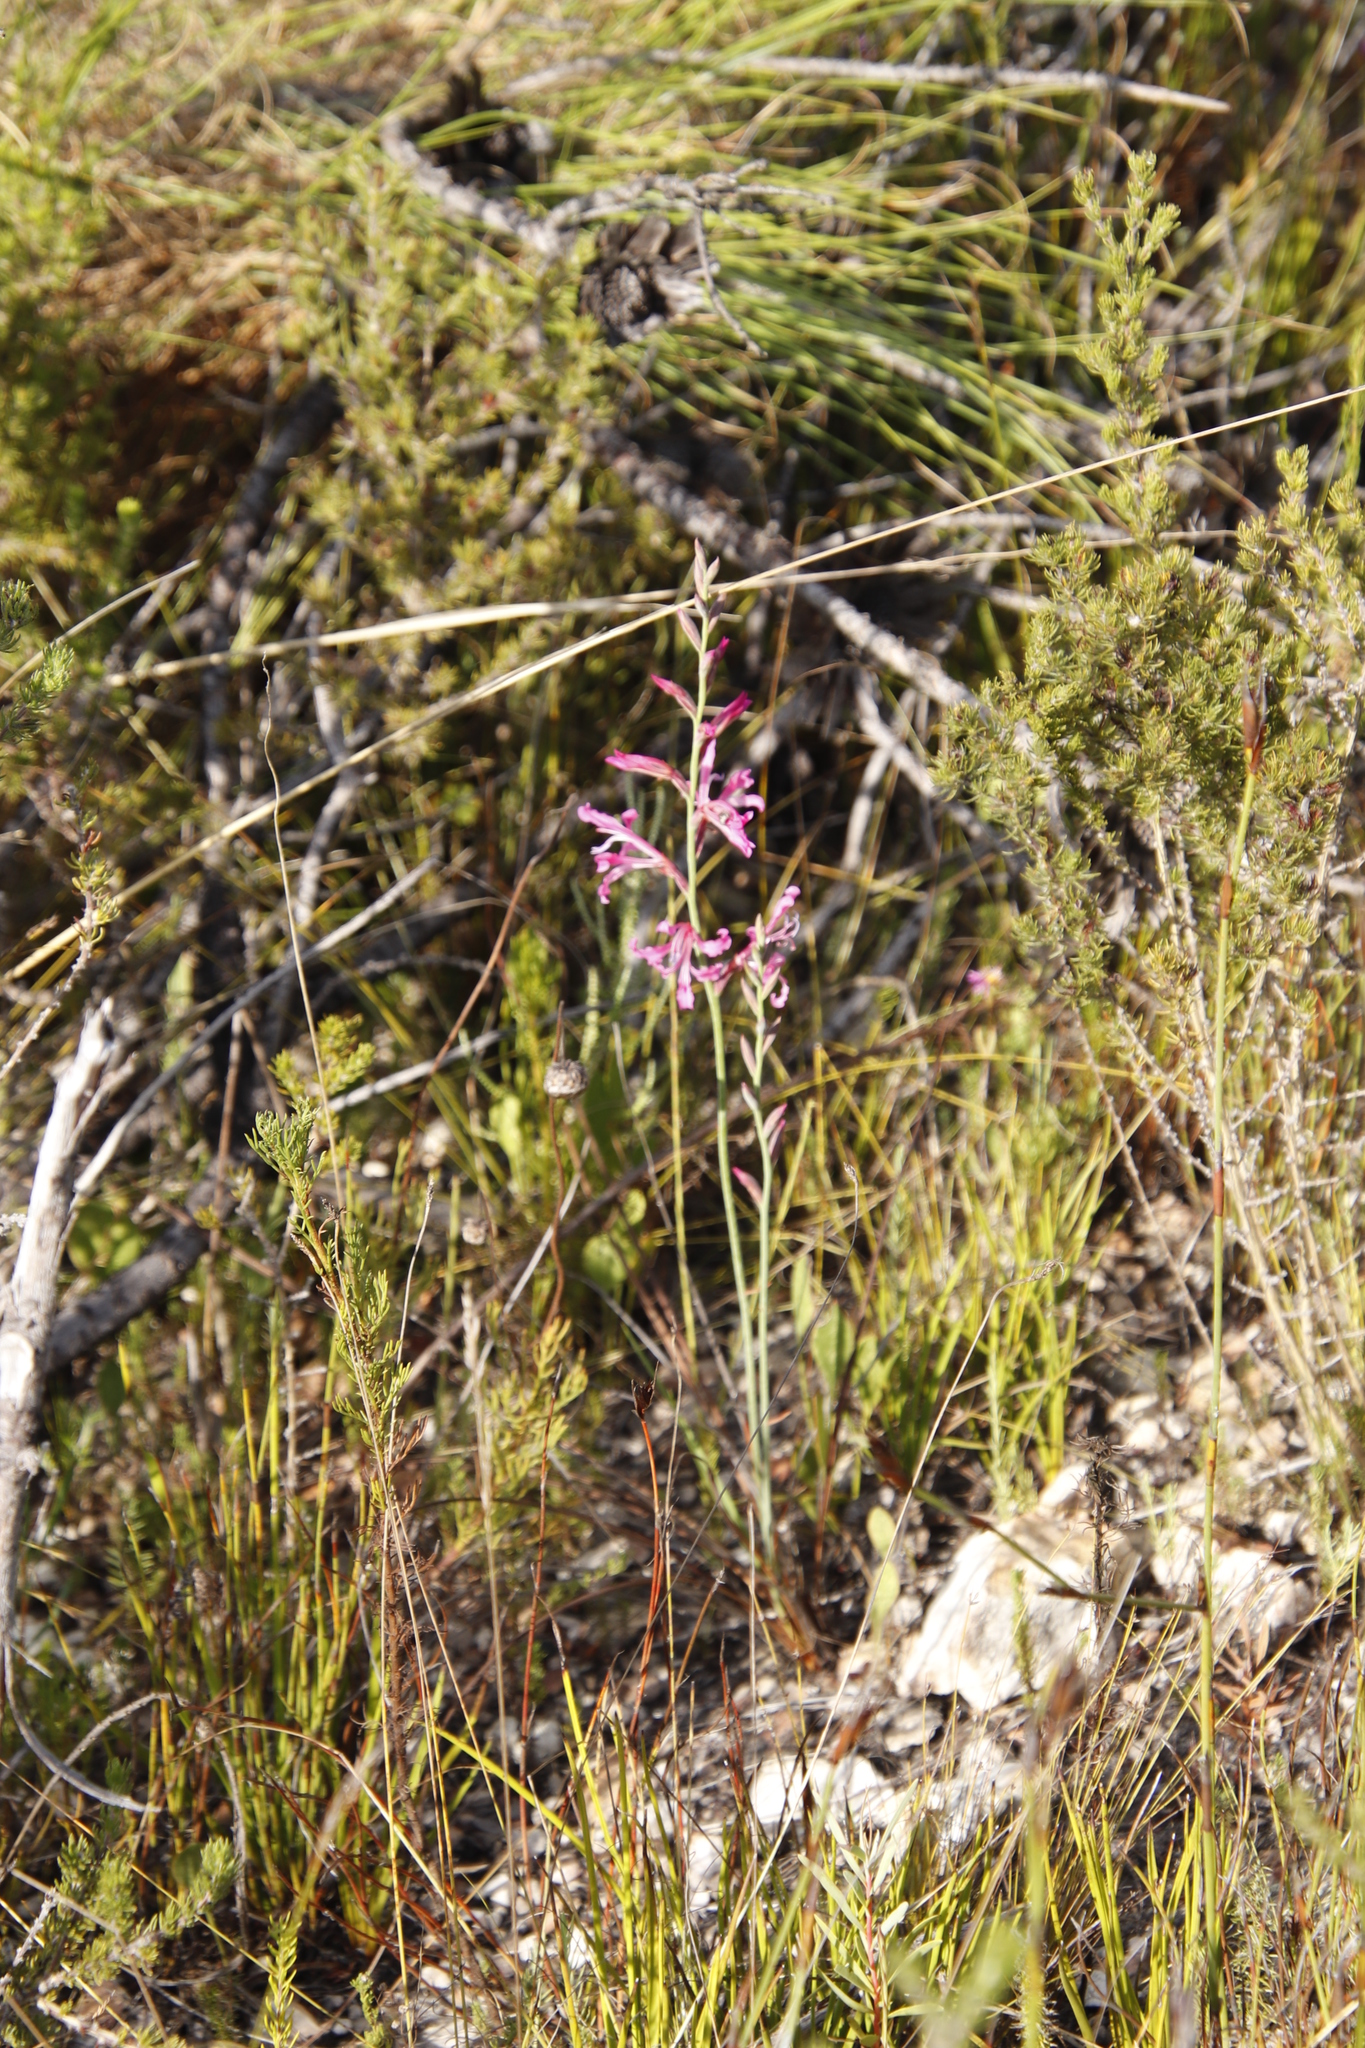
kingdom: Plantae
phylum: Tracheophyta
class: Liliopsida
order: Asparagales
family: Iridaceae
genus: Tritoniopsis
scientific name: Tritoniopsis lata
